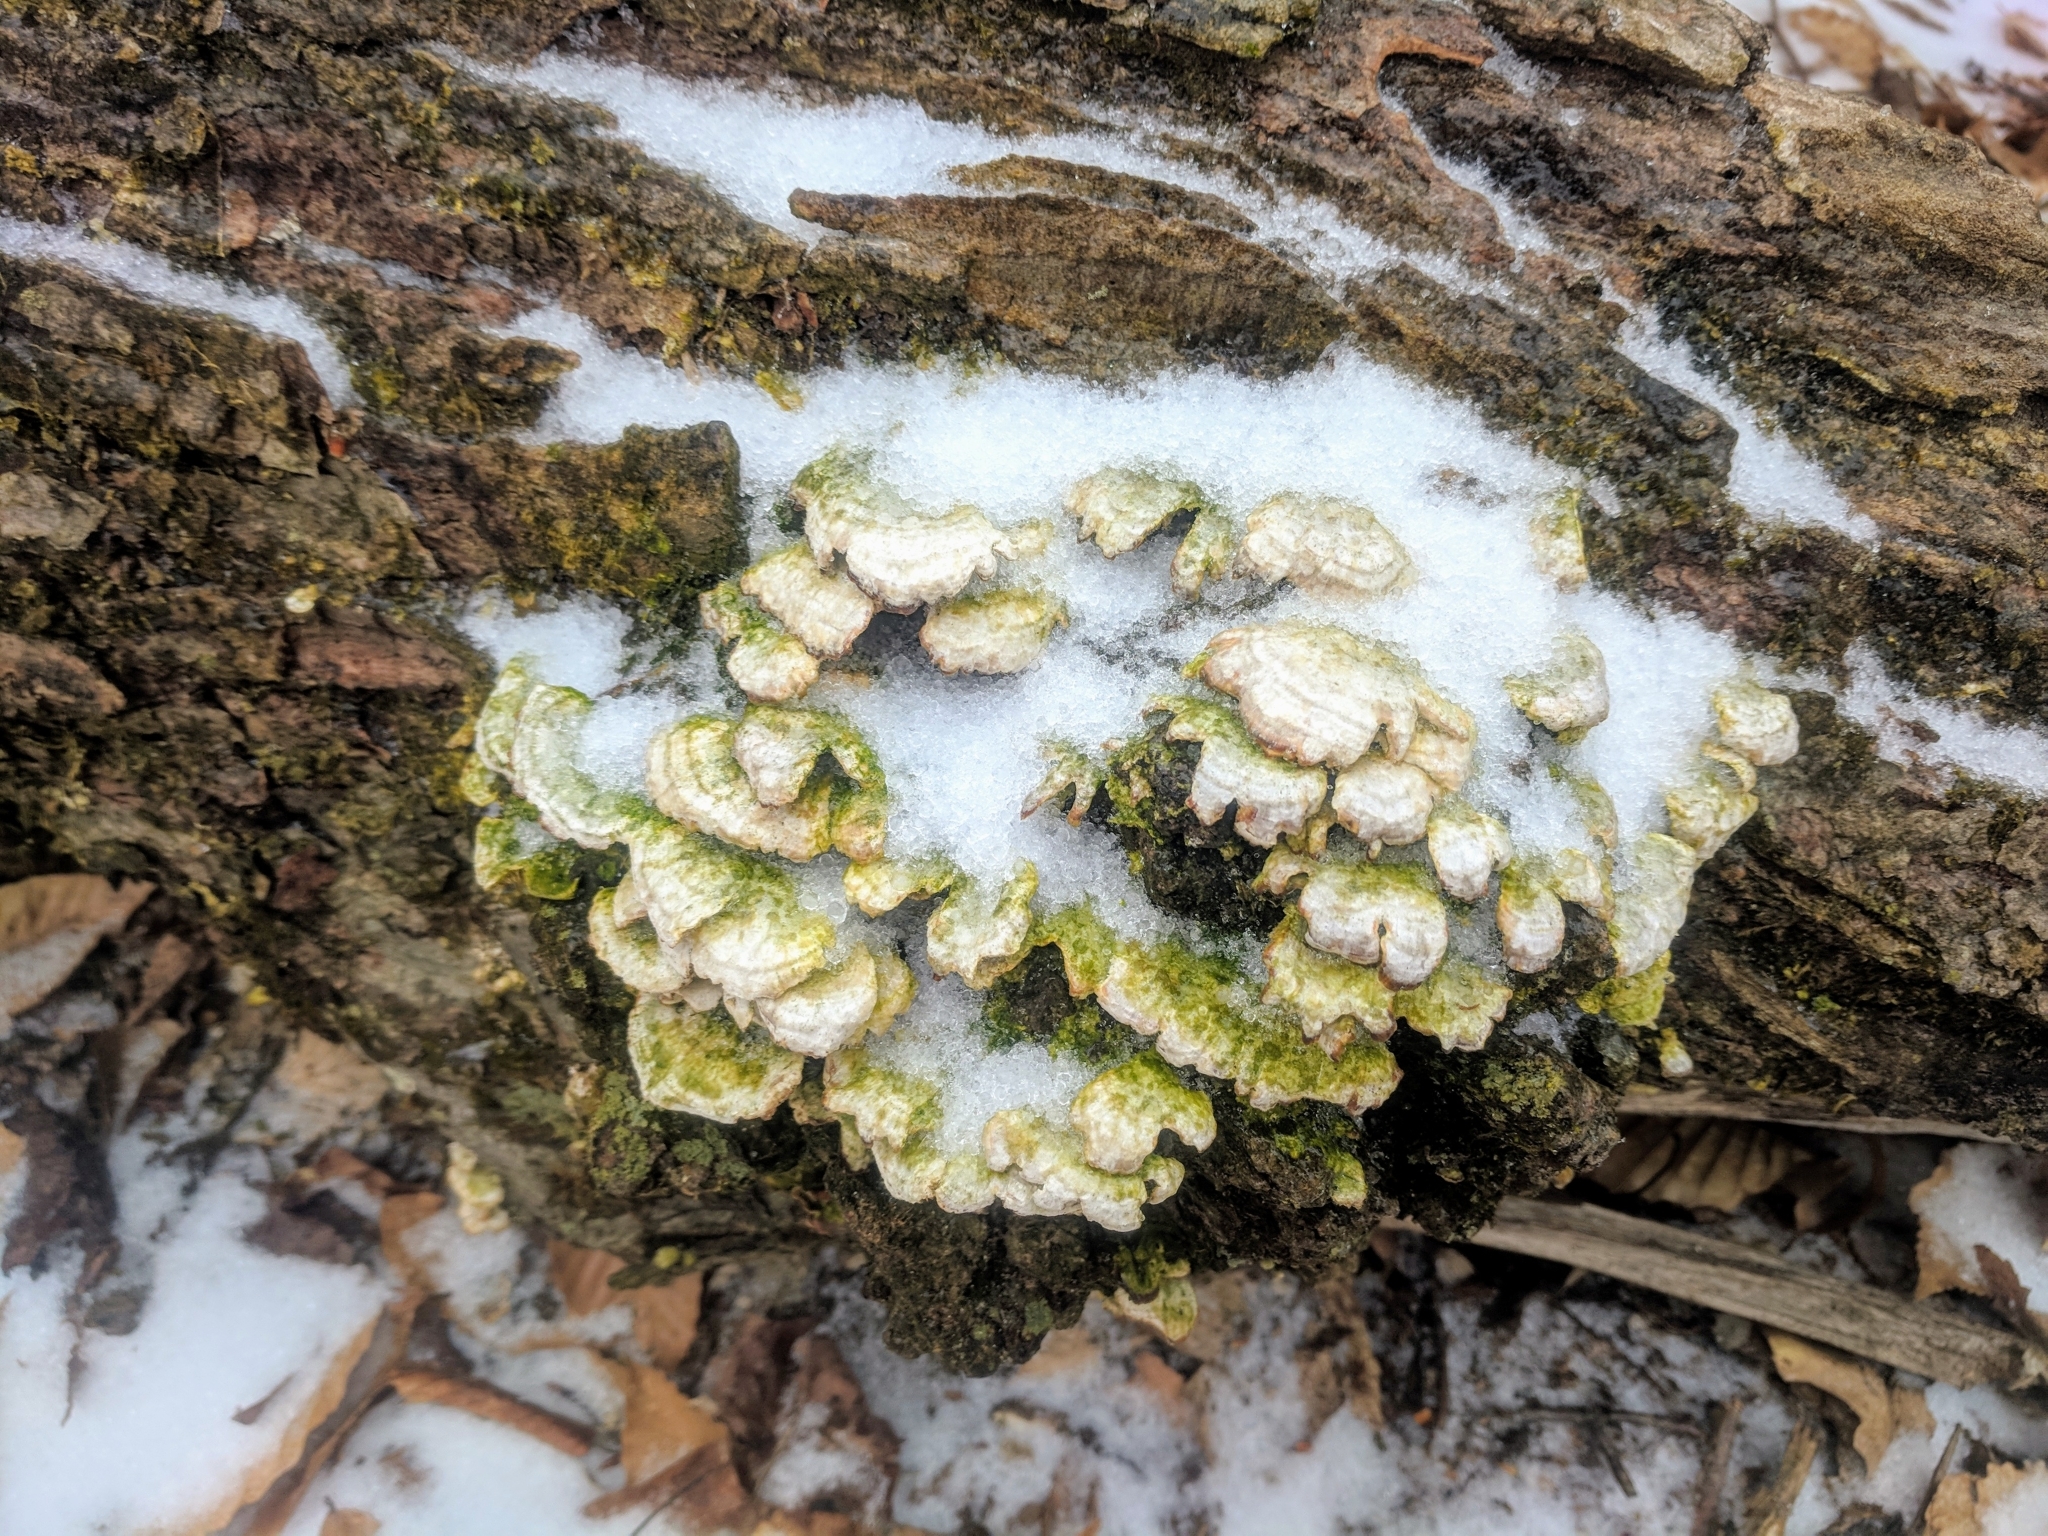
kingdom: Fungi
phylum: Basidiomycota
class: Agaricomycetes
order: Hymenochaetales
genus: Trichaptum
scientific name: Trichaptum biforme
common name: Violet-toothed polypore
